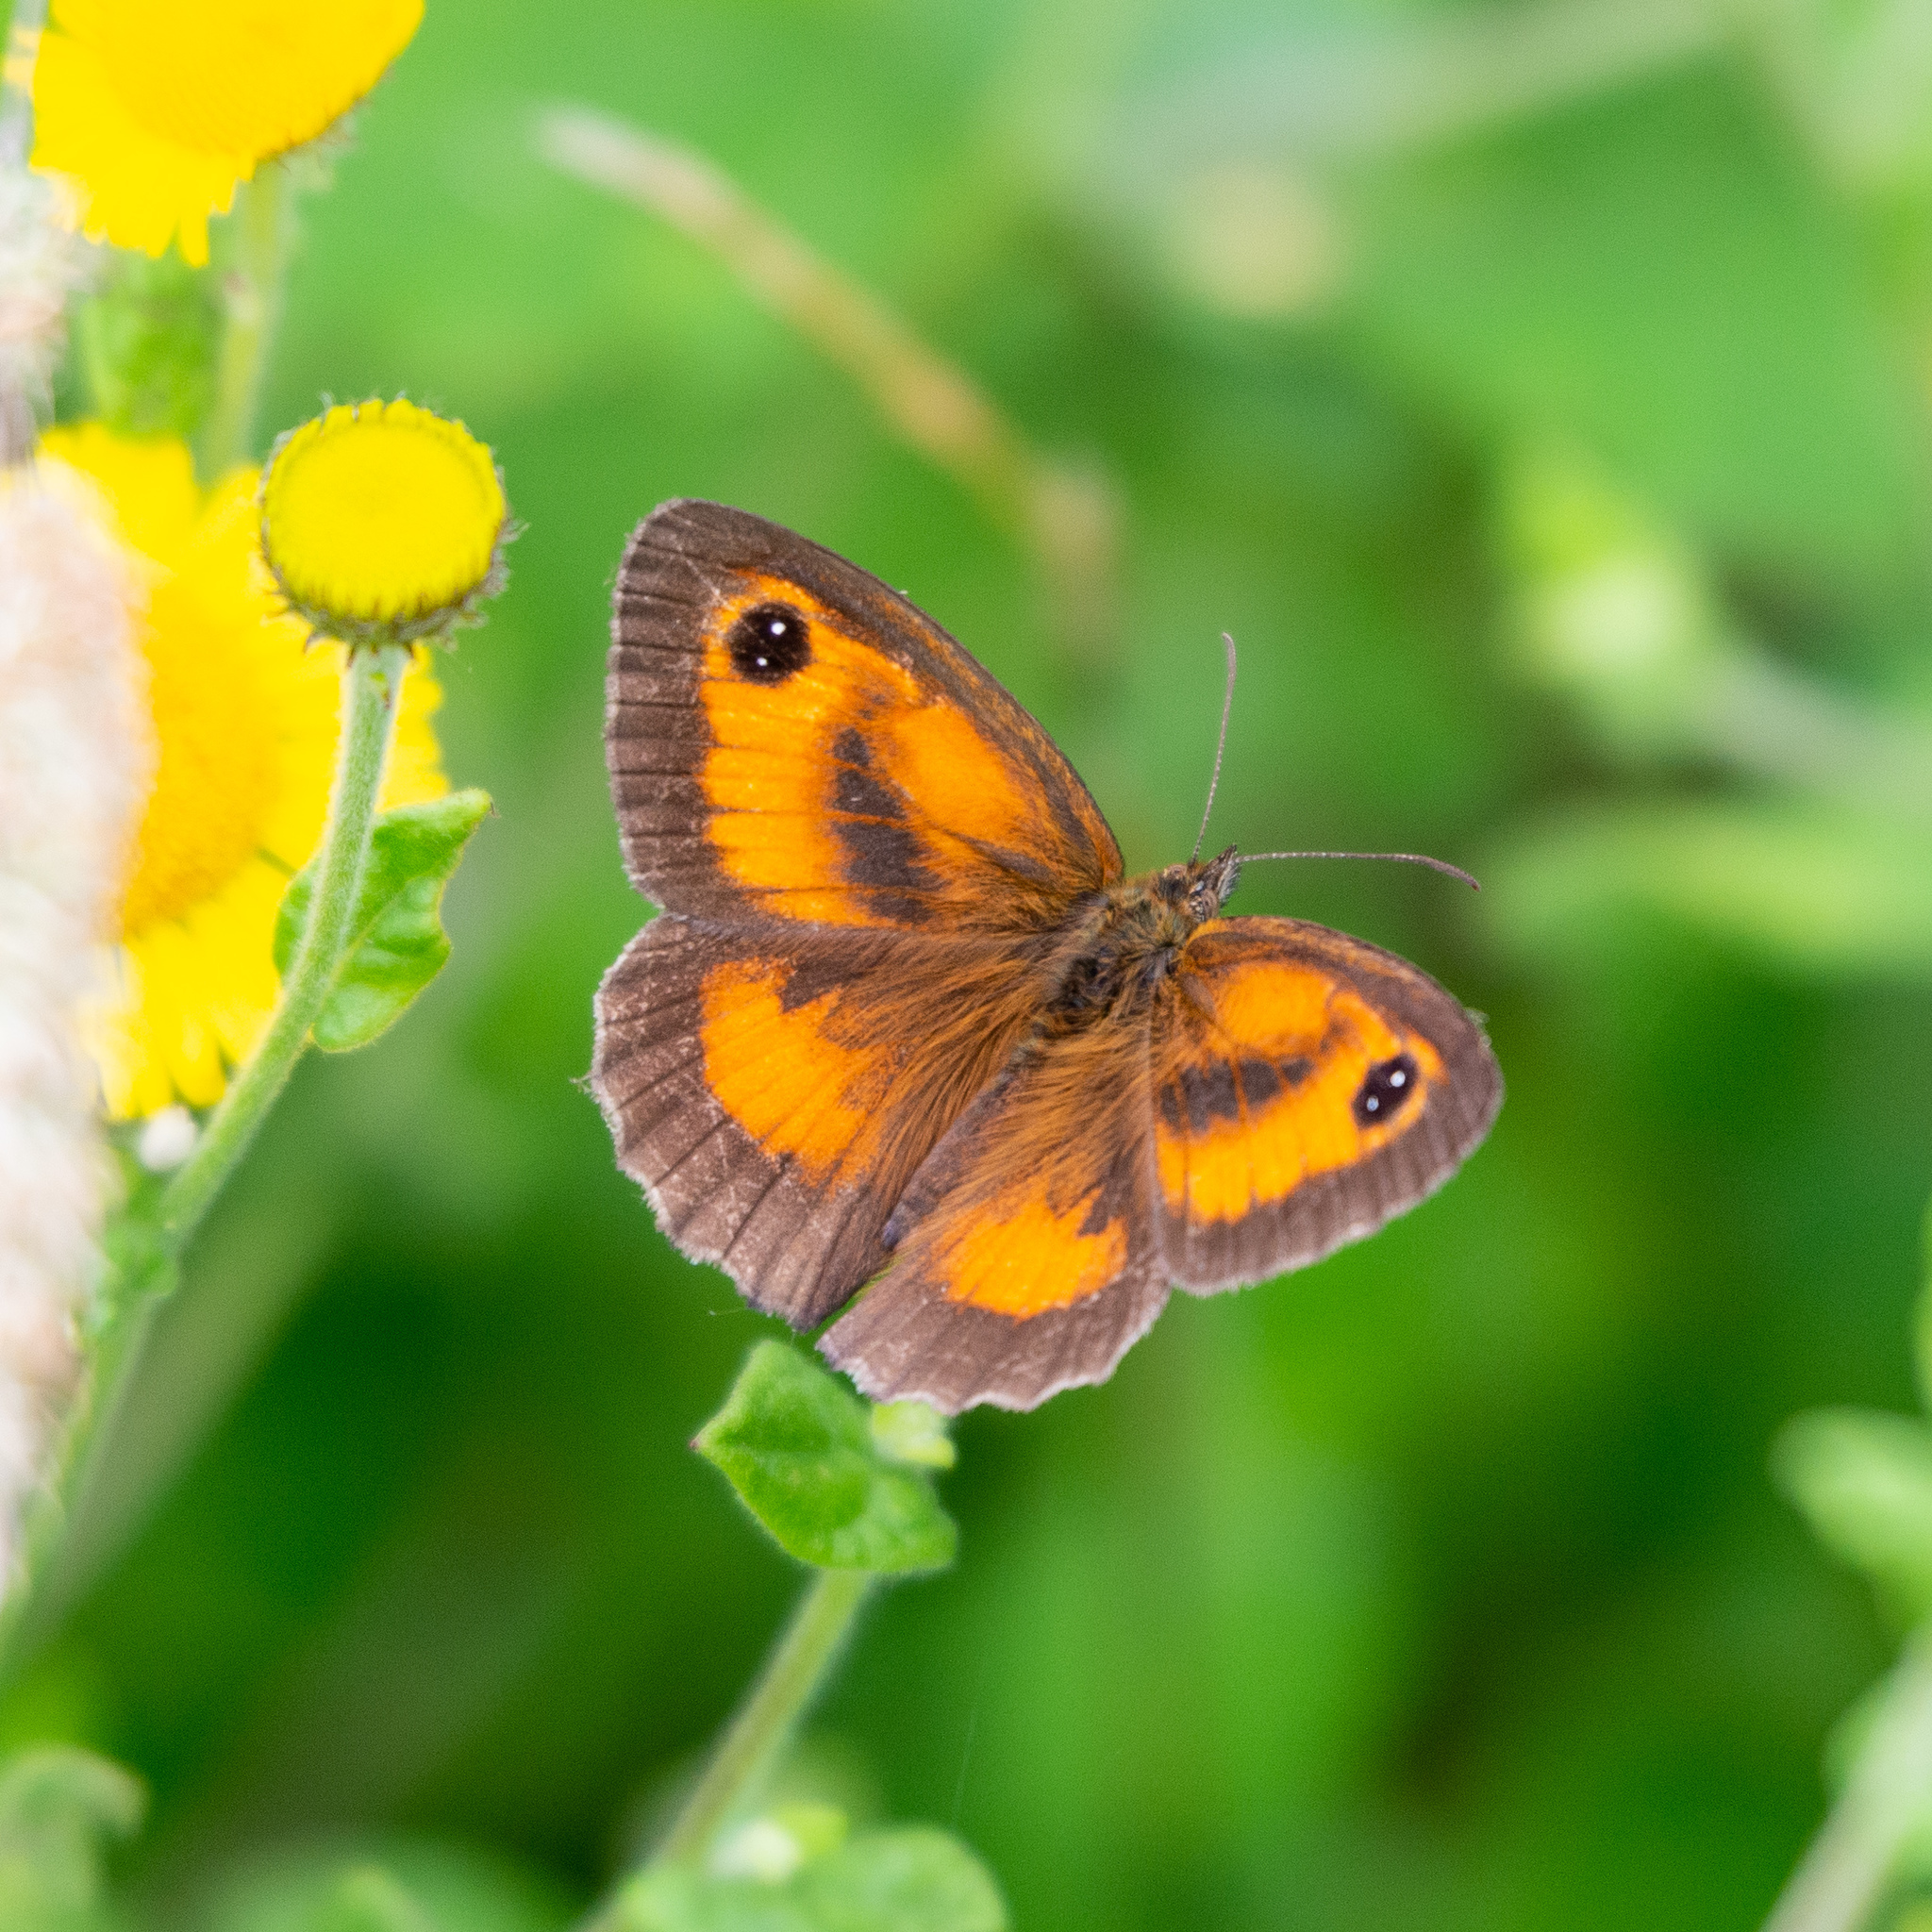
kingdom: Animalia
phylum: Arthropoda
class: Insecta
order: Lepidoptera
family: Nymphalidae
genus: Pyronia
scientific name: Pyronia tithonus
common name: Gatekeeper
